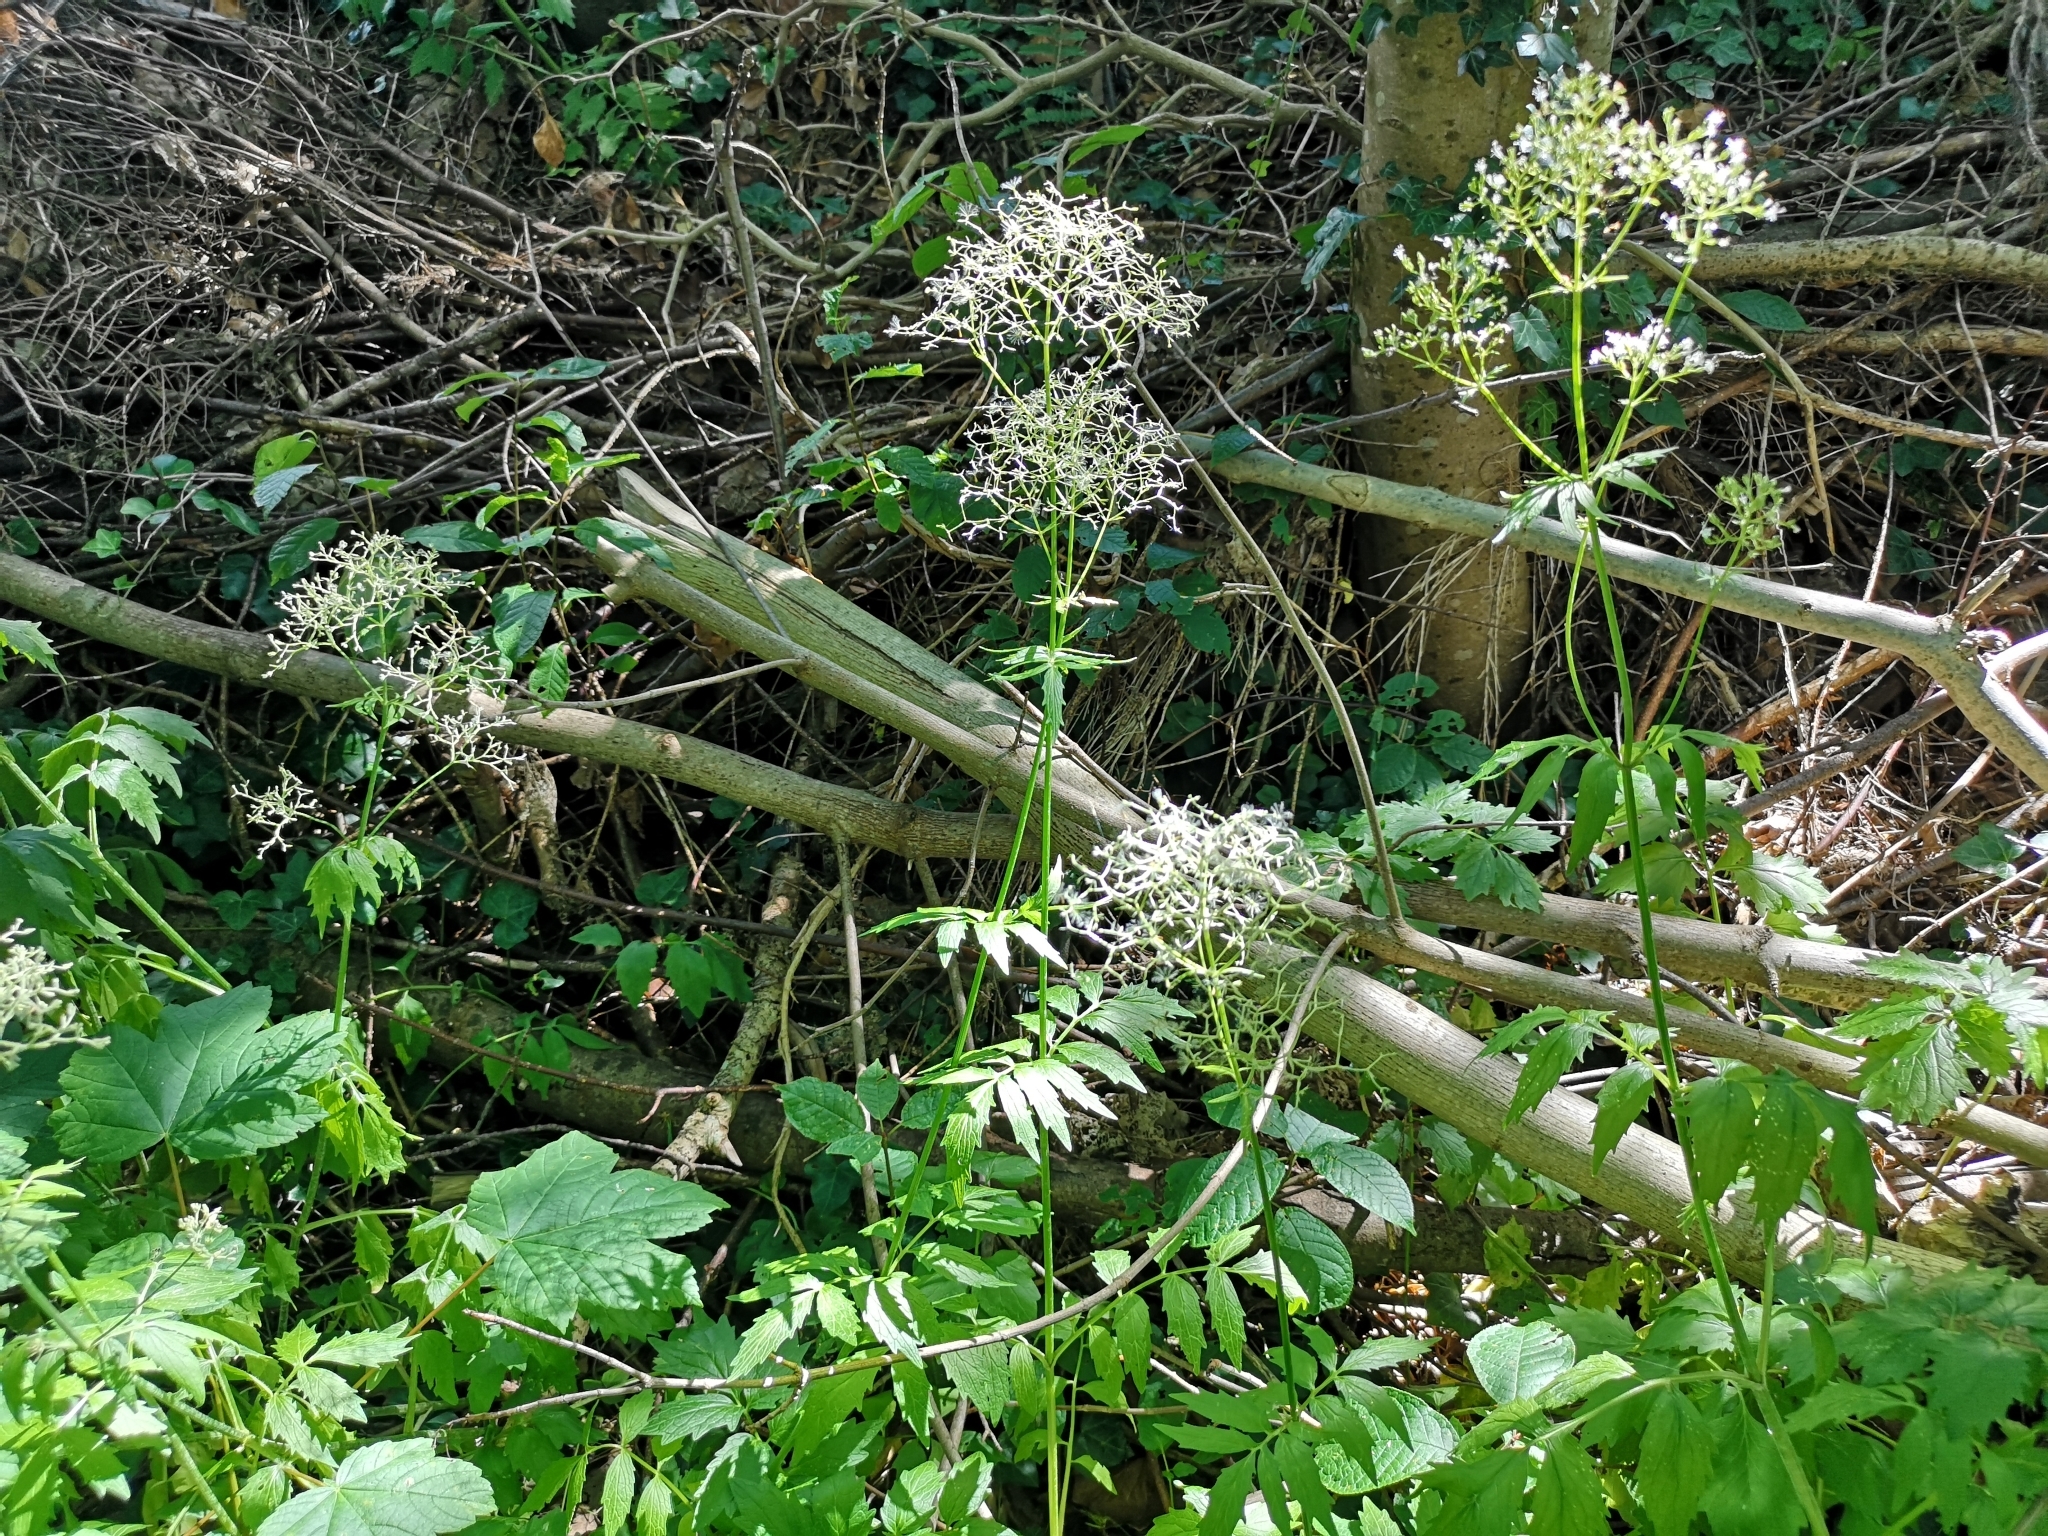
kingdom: Plantae
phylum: Tracheophyta
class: Magnoliopsida
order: Dipsacales
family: Caprifoliaceae
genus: Valeriana
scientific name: Valeriana officinalis
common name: Common valerian
